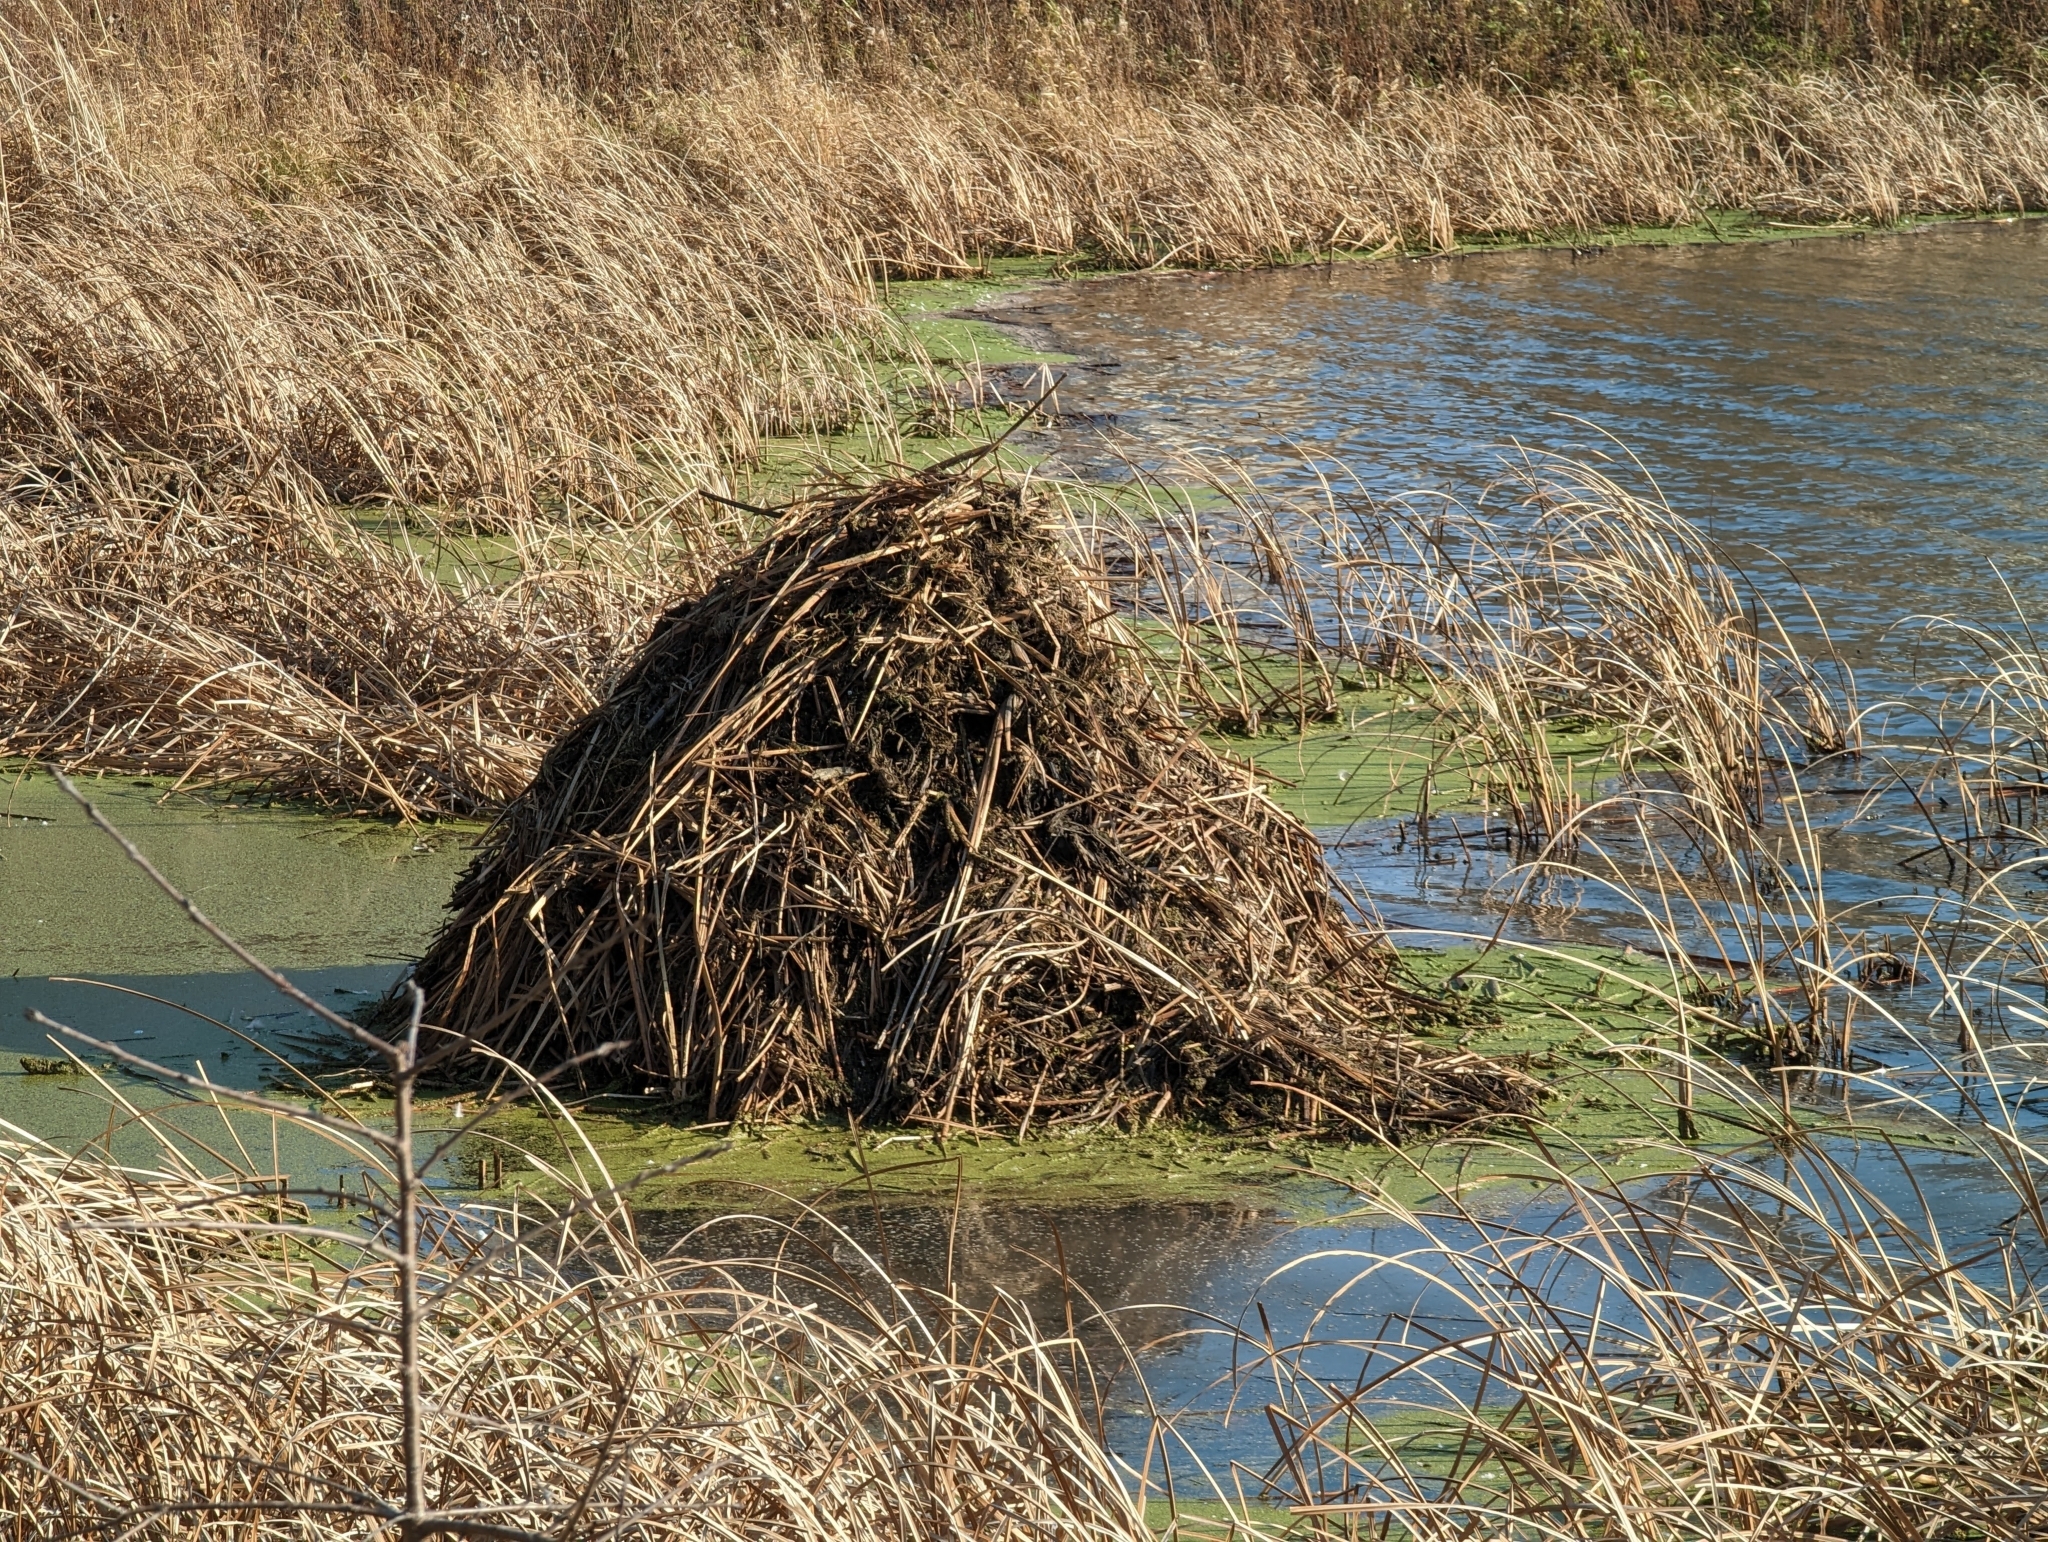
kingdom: Animalia
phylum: Chordata
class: Mammalia
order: Rodentia
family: Cricetidae
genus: Ondatra
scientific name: Ondatra zibethicus
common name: Muskrat
